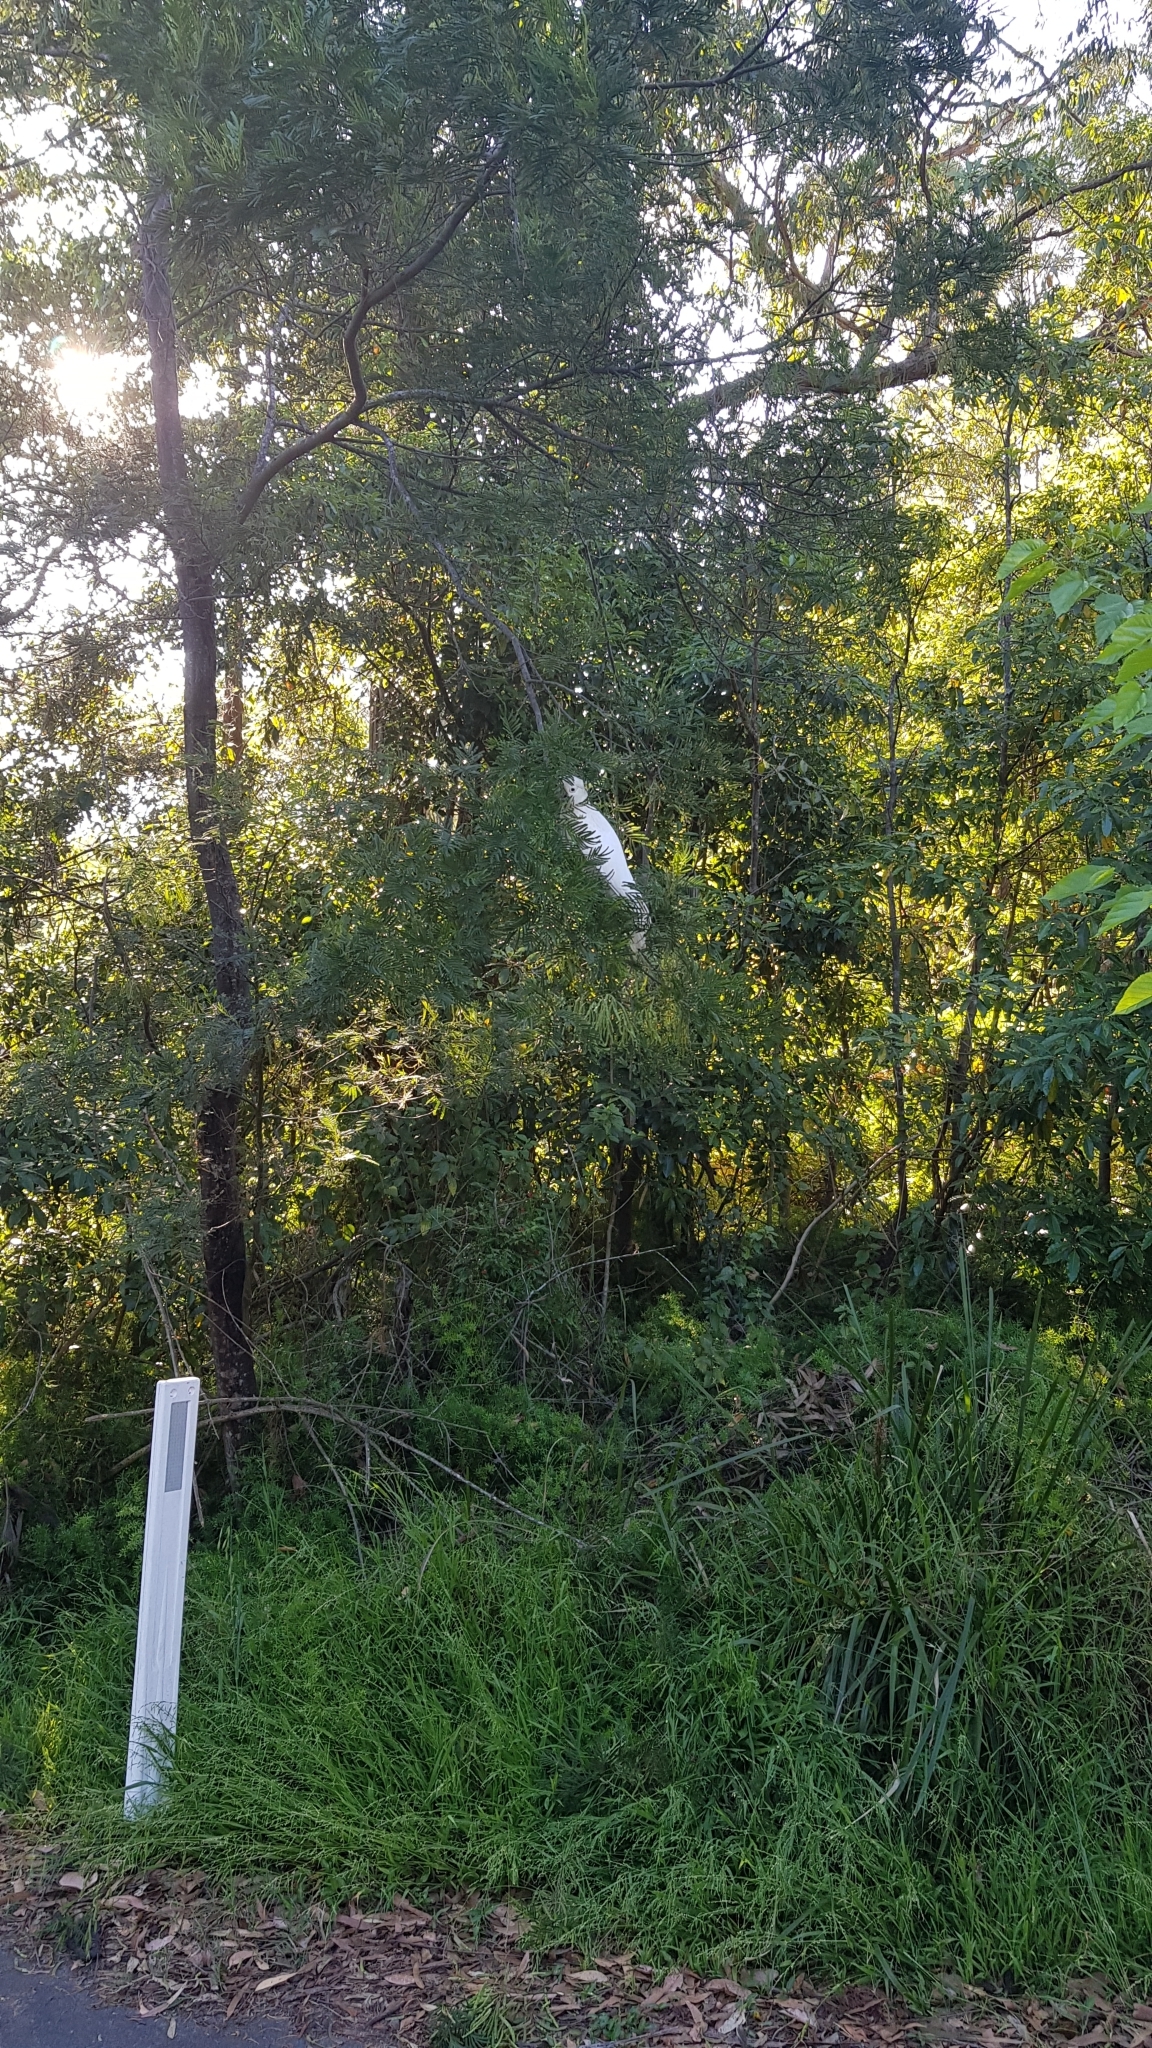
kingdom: Animalia
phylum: Chordata
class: Aves
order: Psittaciformes
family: Psittacidae
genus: Cacatua
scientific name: Cacatua galerita
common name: Sulphur-crested cockatoo
